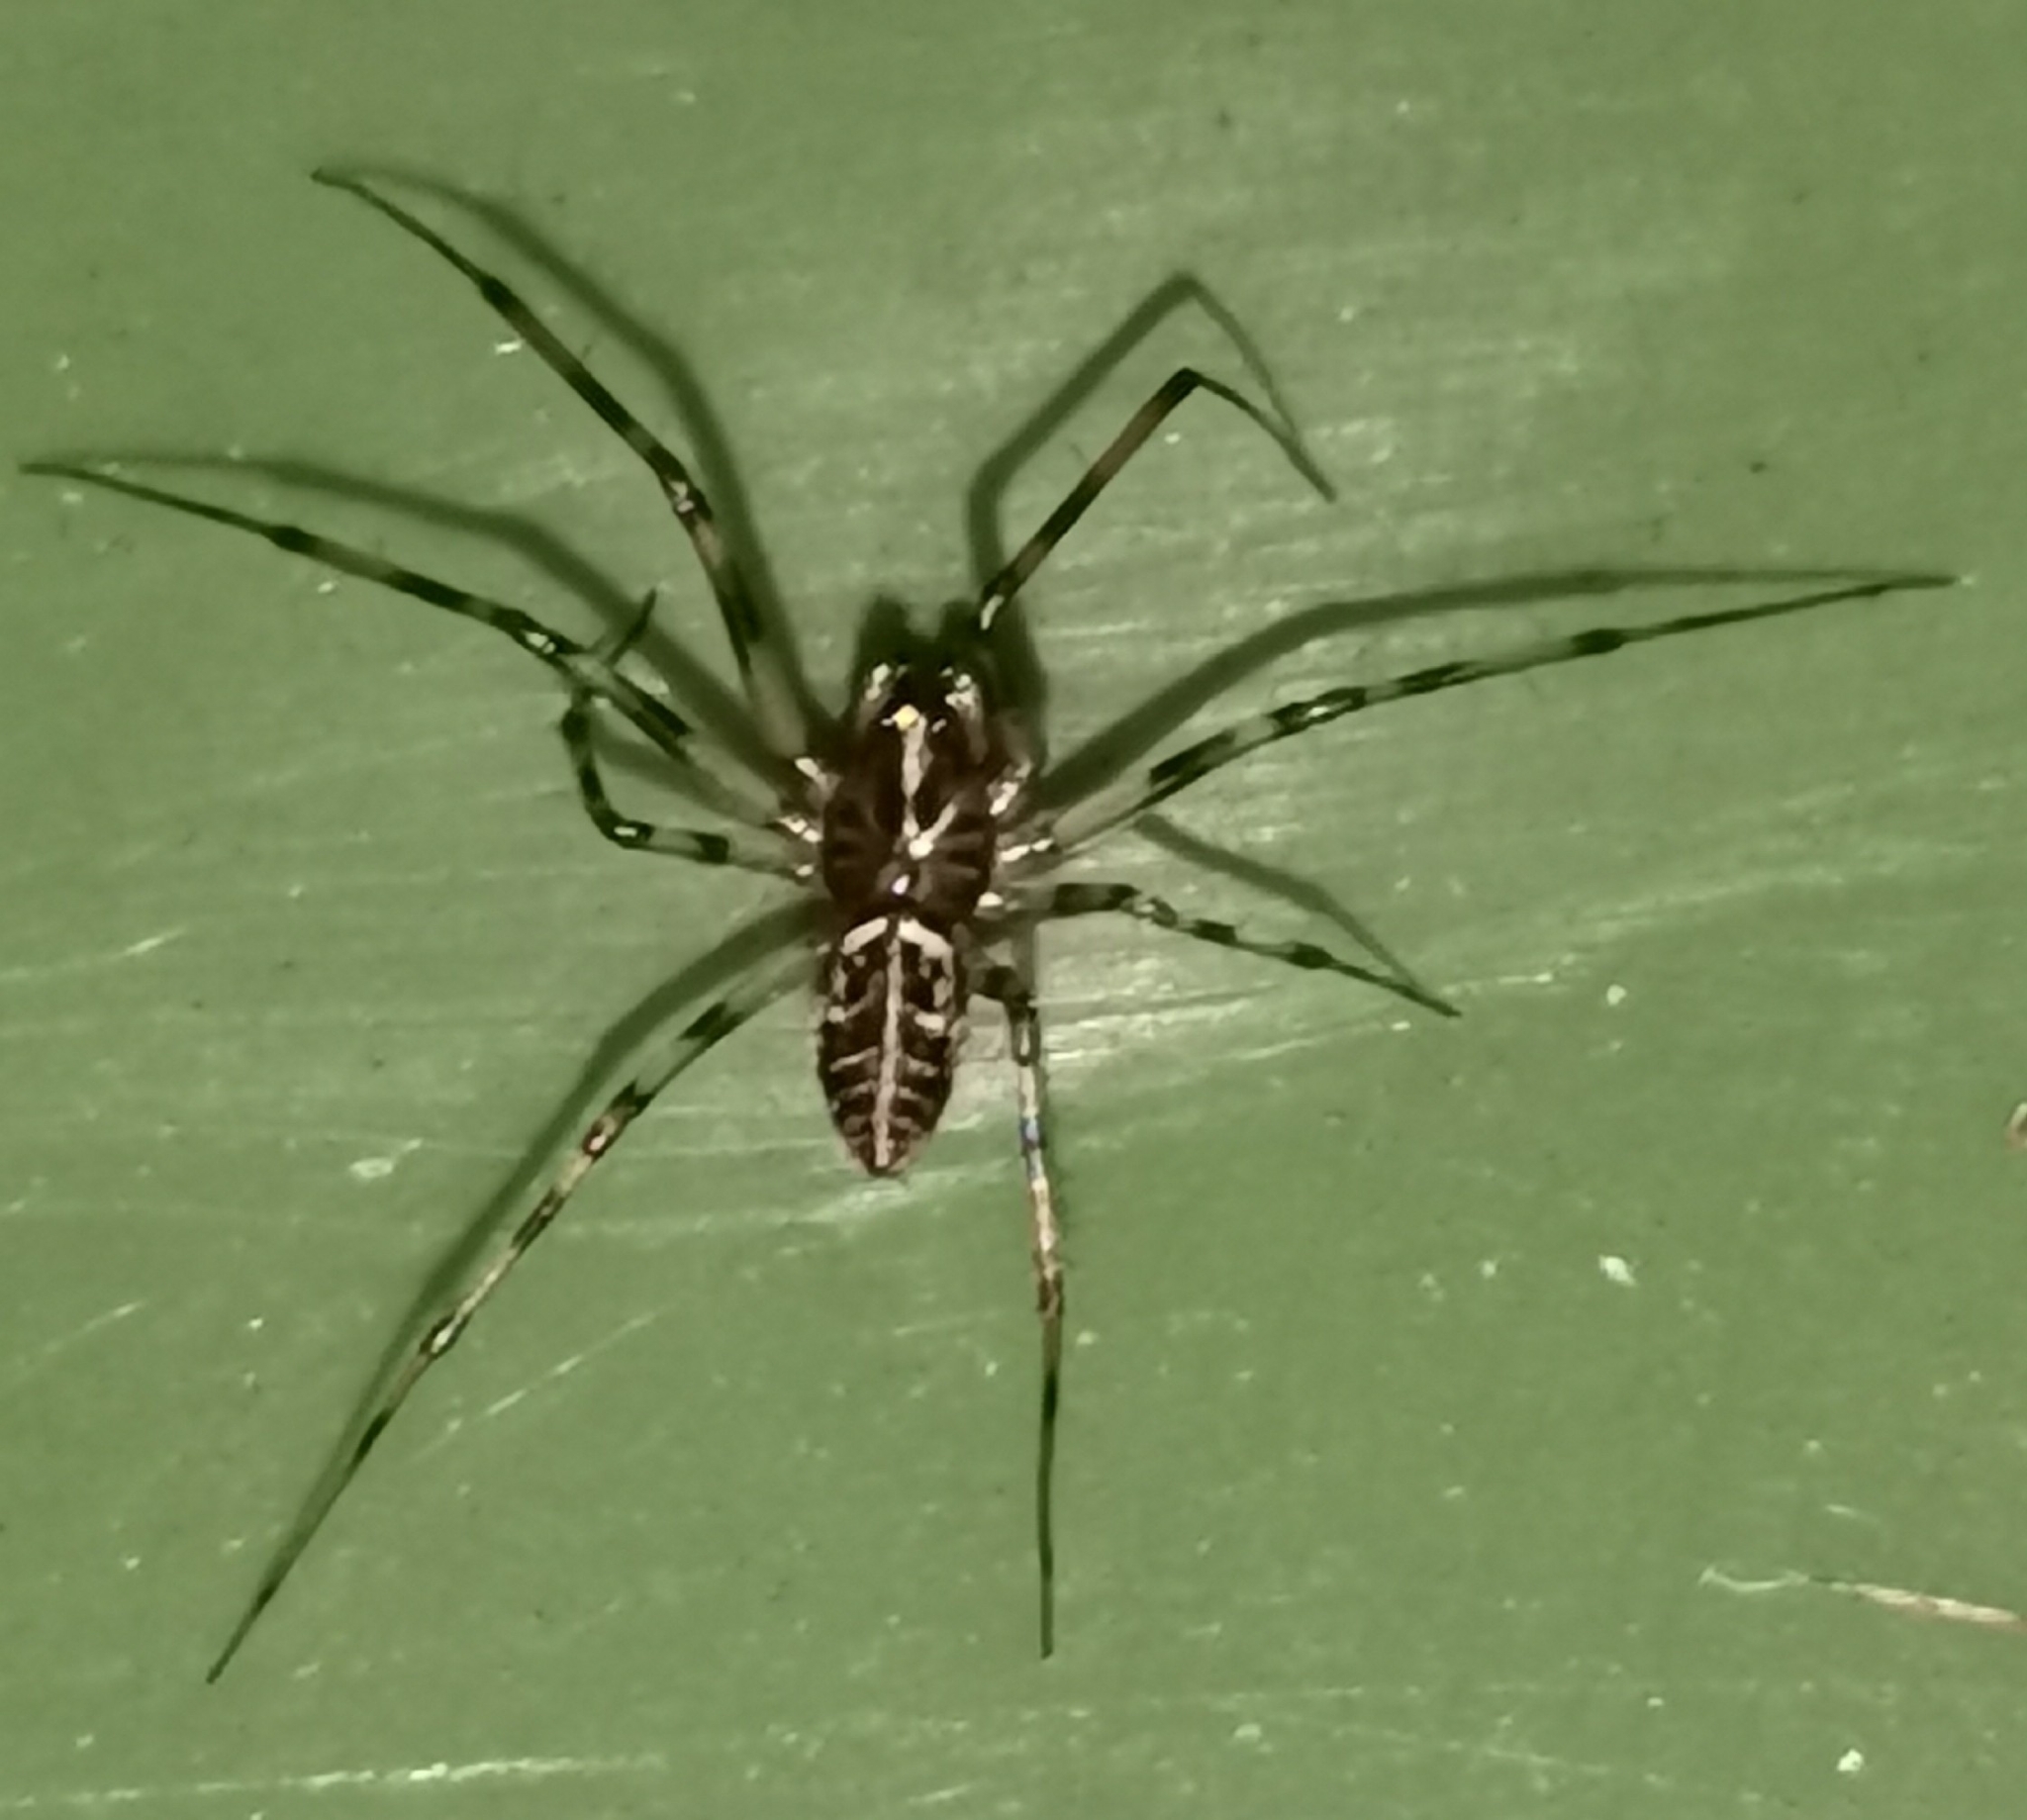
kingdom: Animalia
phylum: Arthropoda
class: Arachnida
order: Araneae
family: Linyphiidae
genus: Drapetisca
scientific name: Drapetisca socialis
